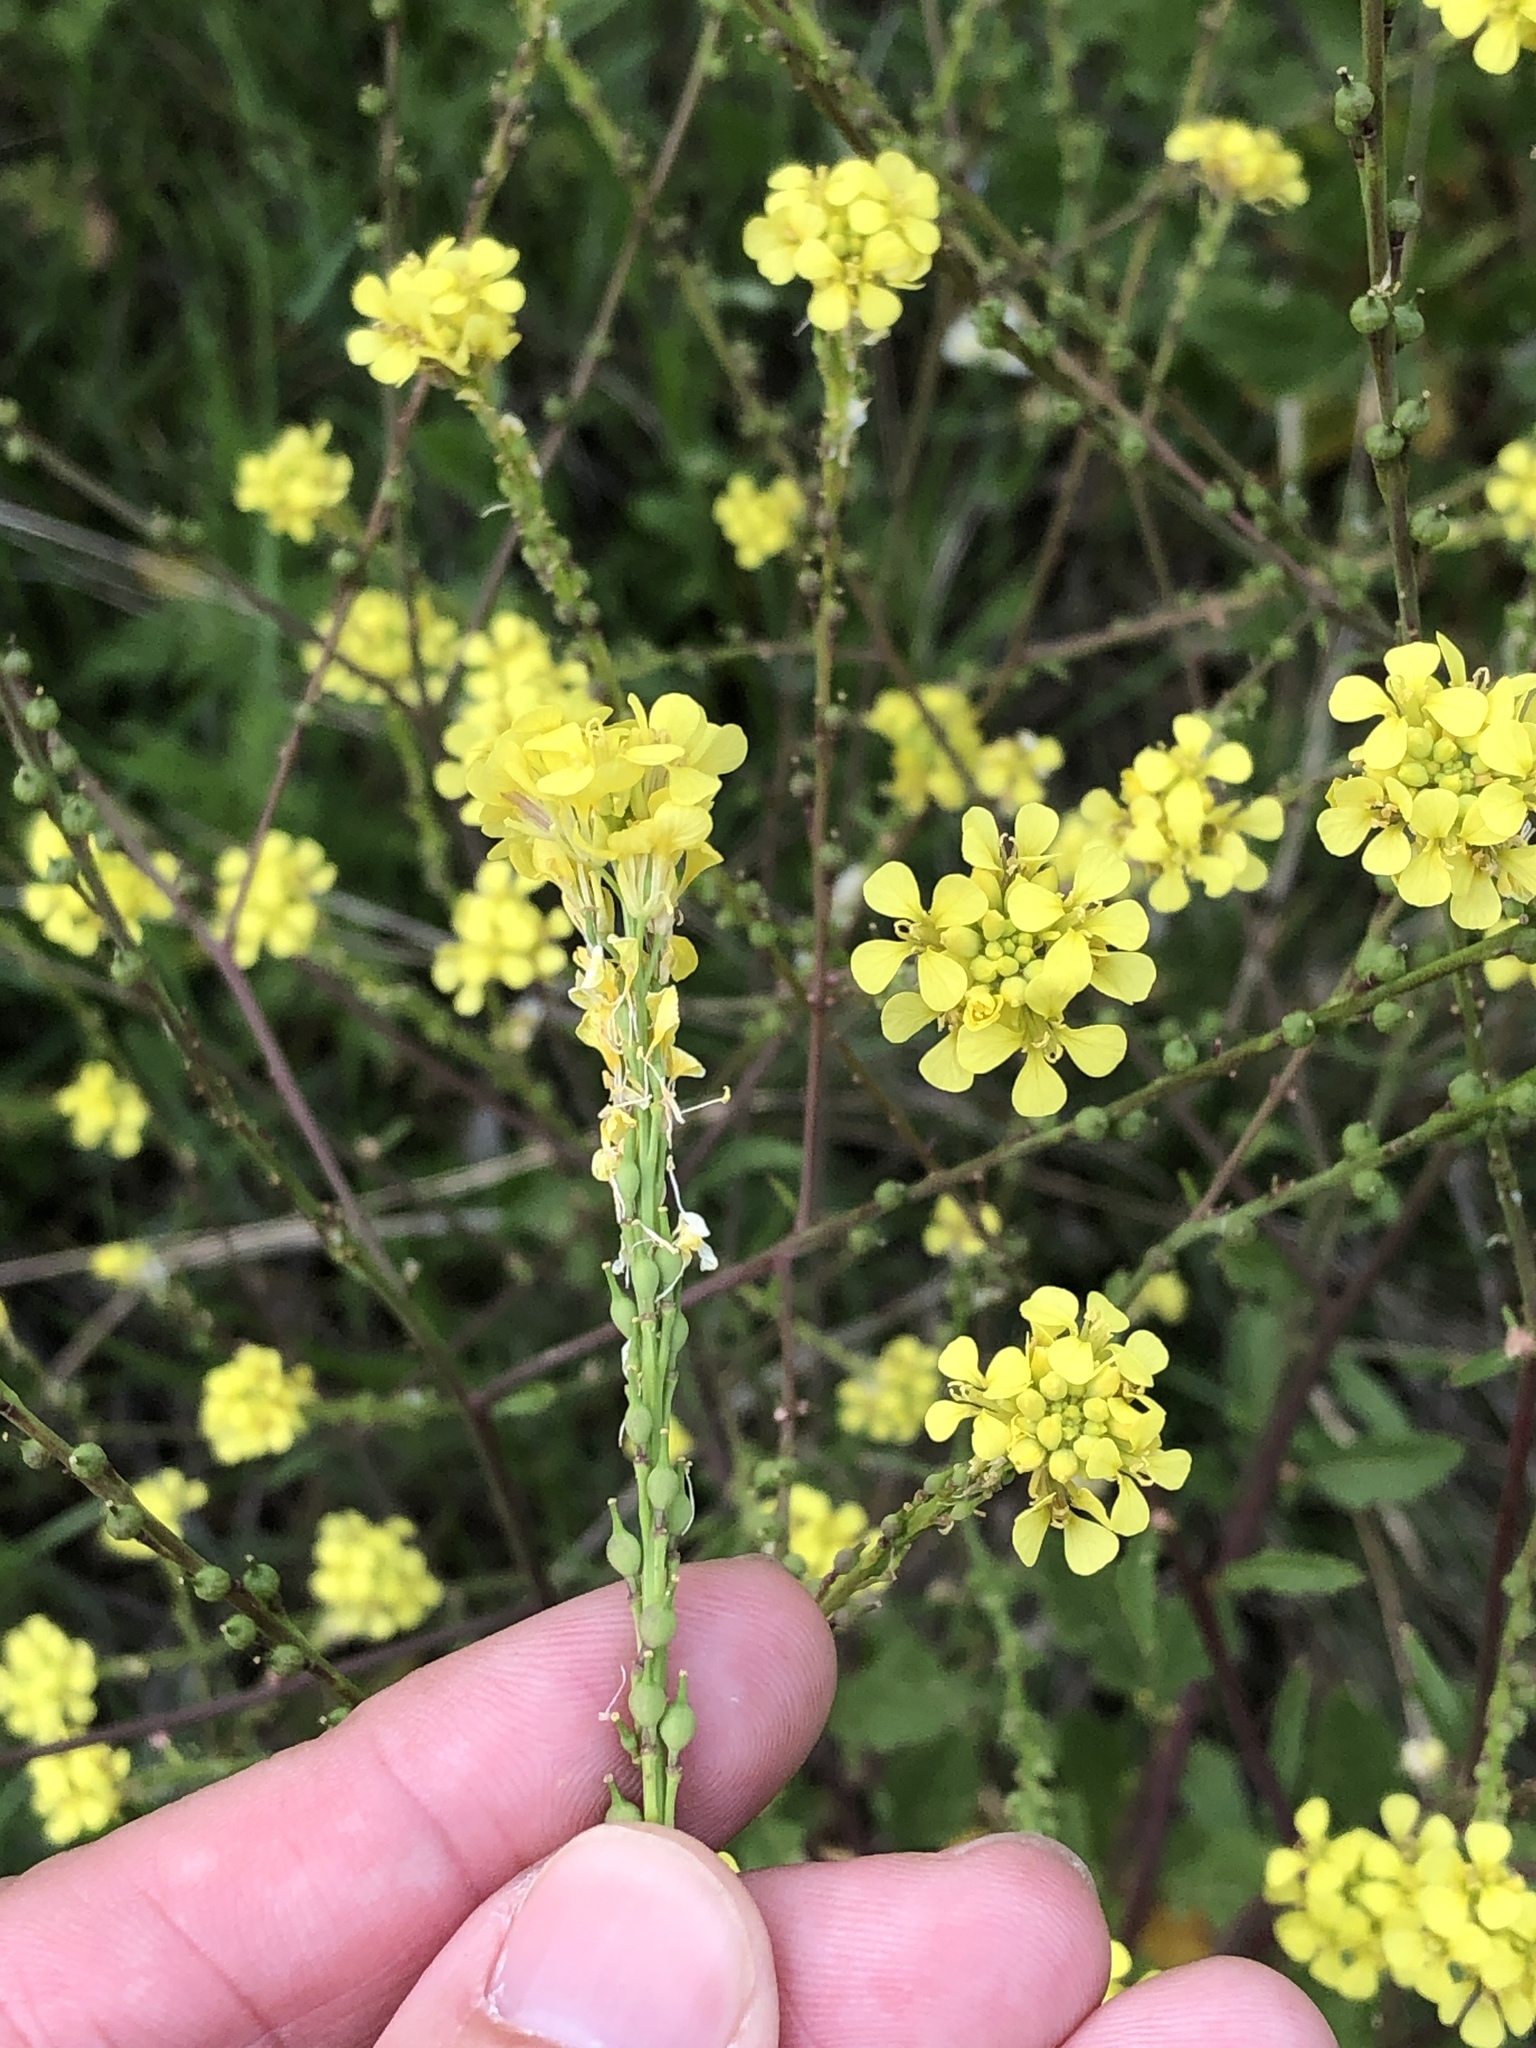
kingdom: Plantae
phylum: Tracheophyta
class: Magnoliopsida
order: Brassicales
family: Brassicaceae
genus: Rapistrum
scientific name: Rapistrum rugosum
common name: Annual bastardcabbage
